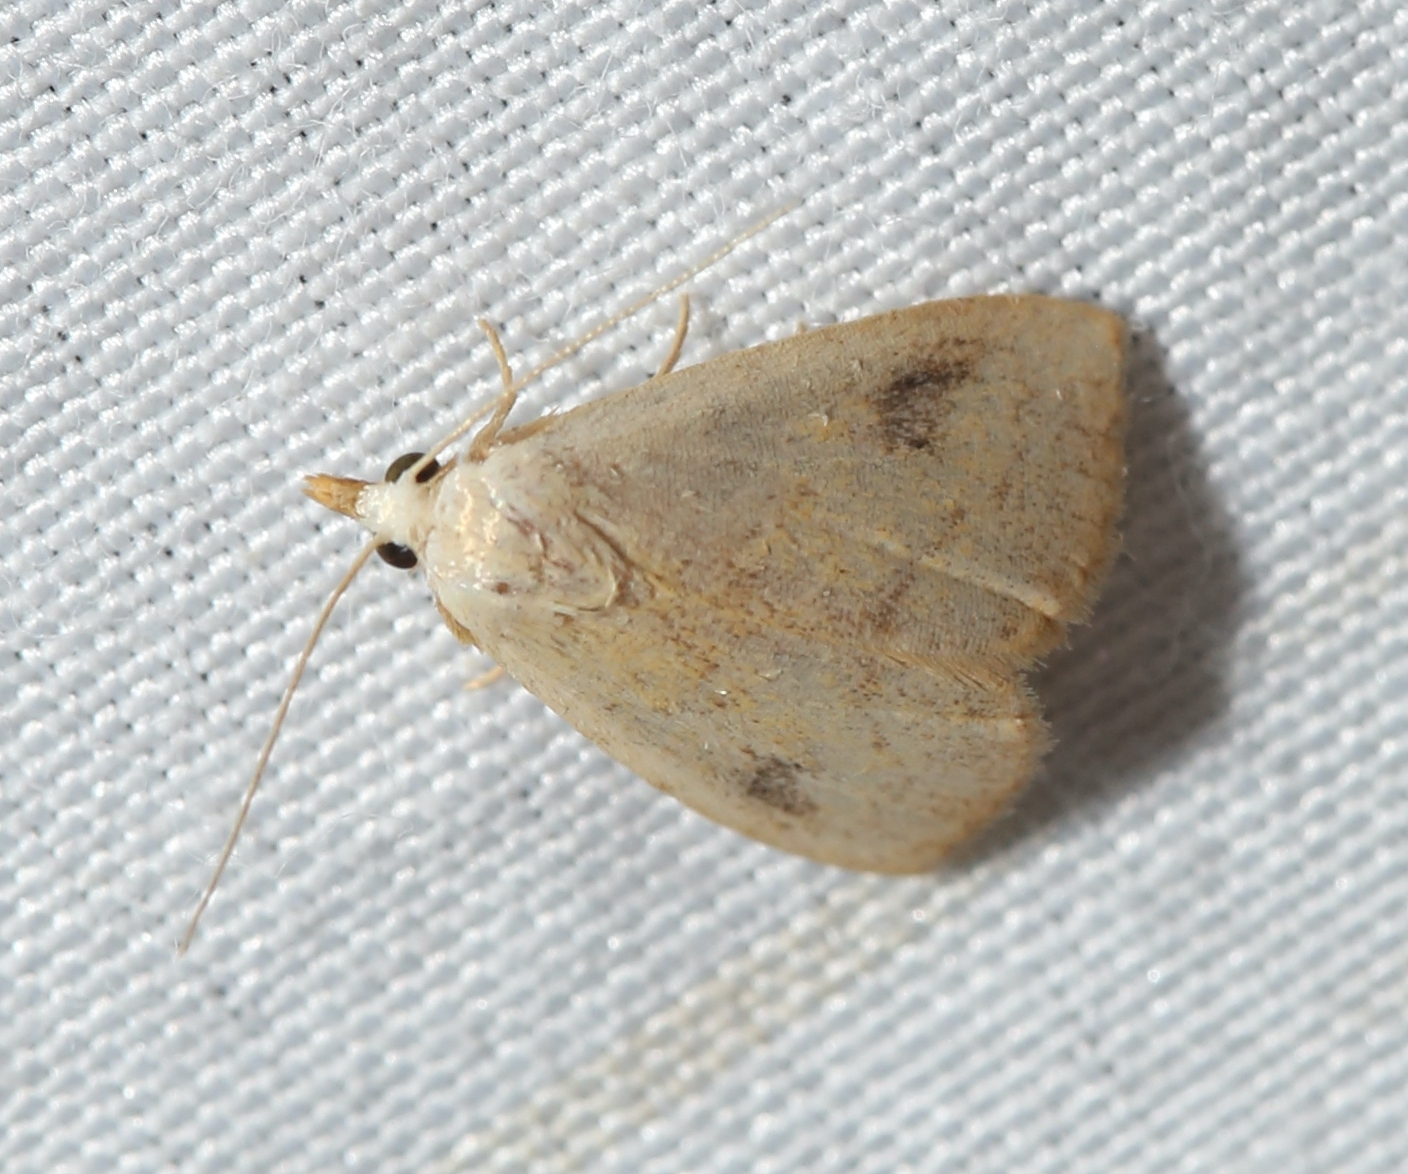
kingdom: Animalia
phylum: Arthropoda
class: Insecta
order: Lepidoptera
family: Erebidae
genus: Rivula
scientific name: Rivula propinqualis
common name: Spotted grass moth
